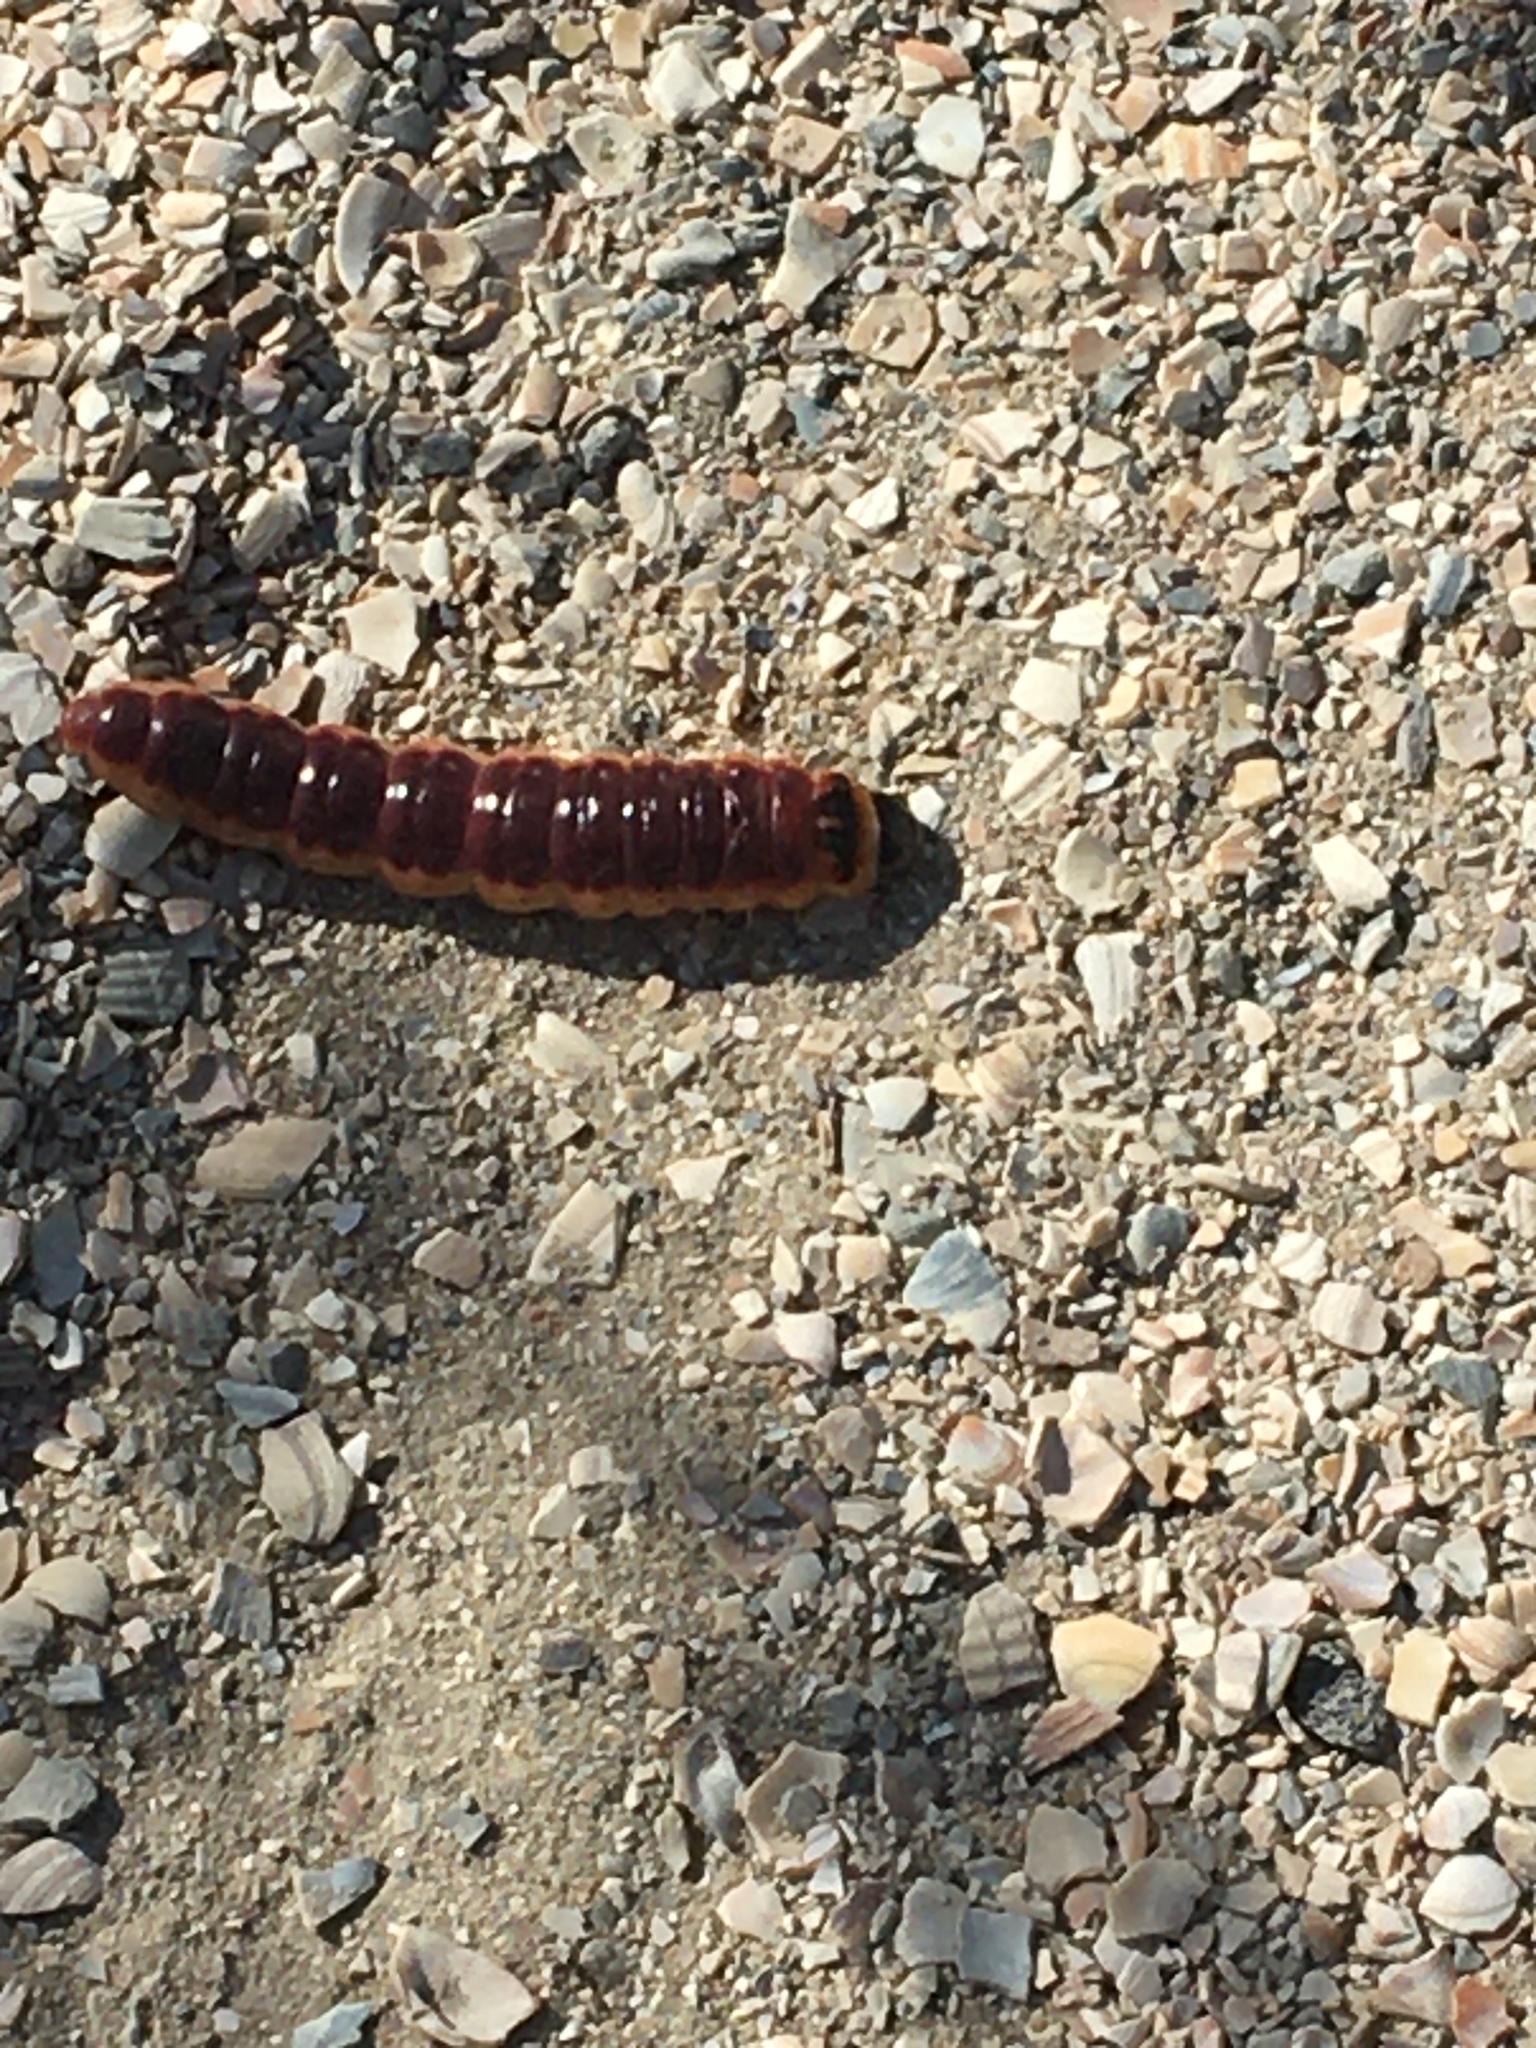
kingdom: Animalia
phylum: Arthropoda
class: Insecta
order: Lepidoptera
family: Cossidae
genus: Cossus
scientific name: Cossus cossus
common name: Goat moth
